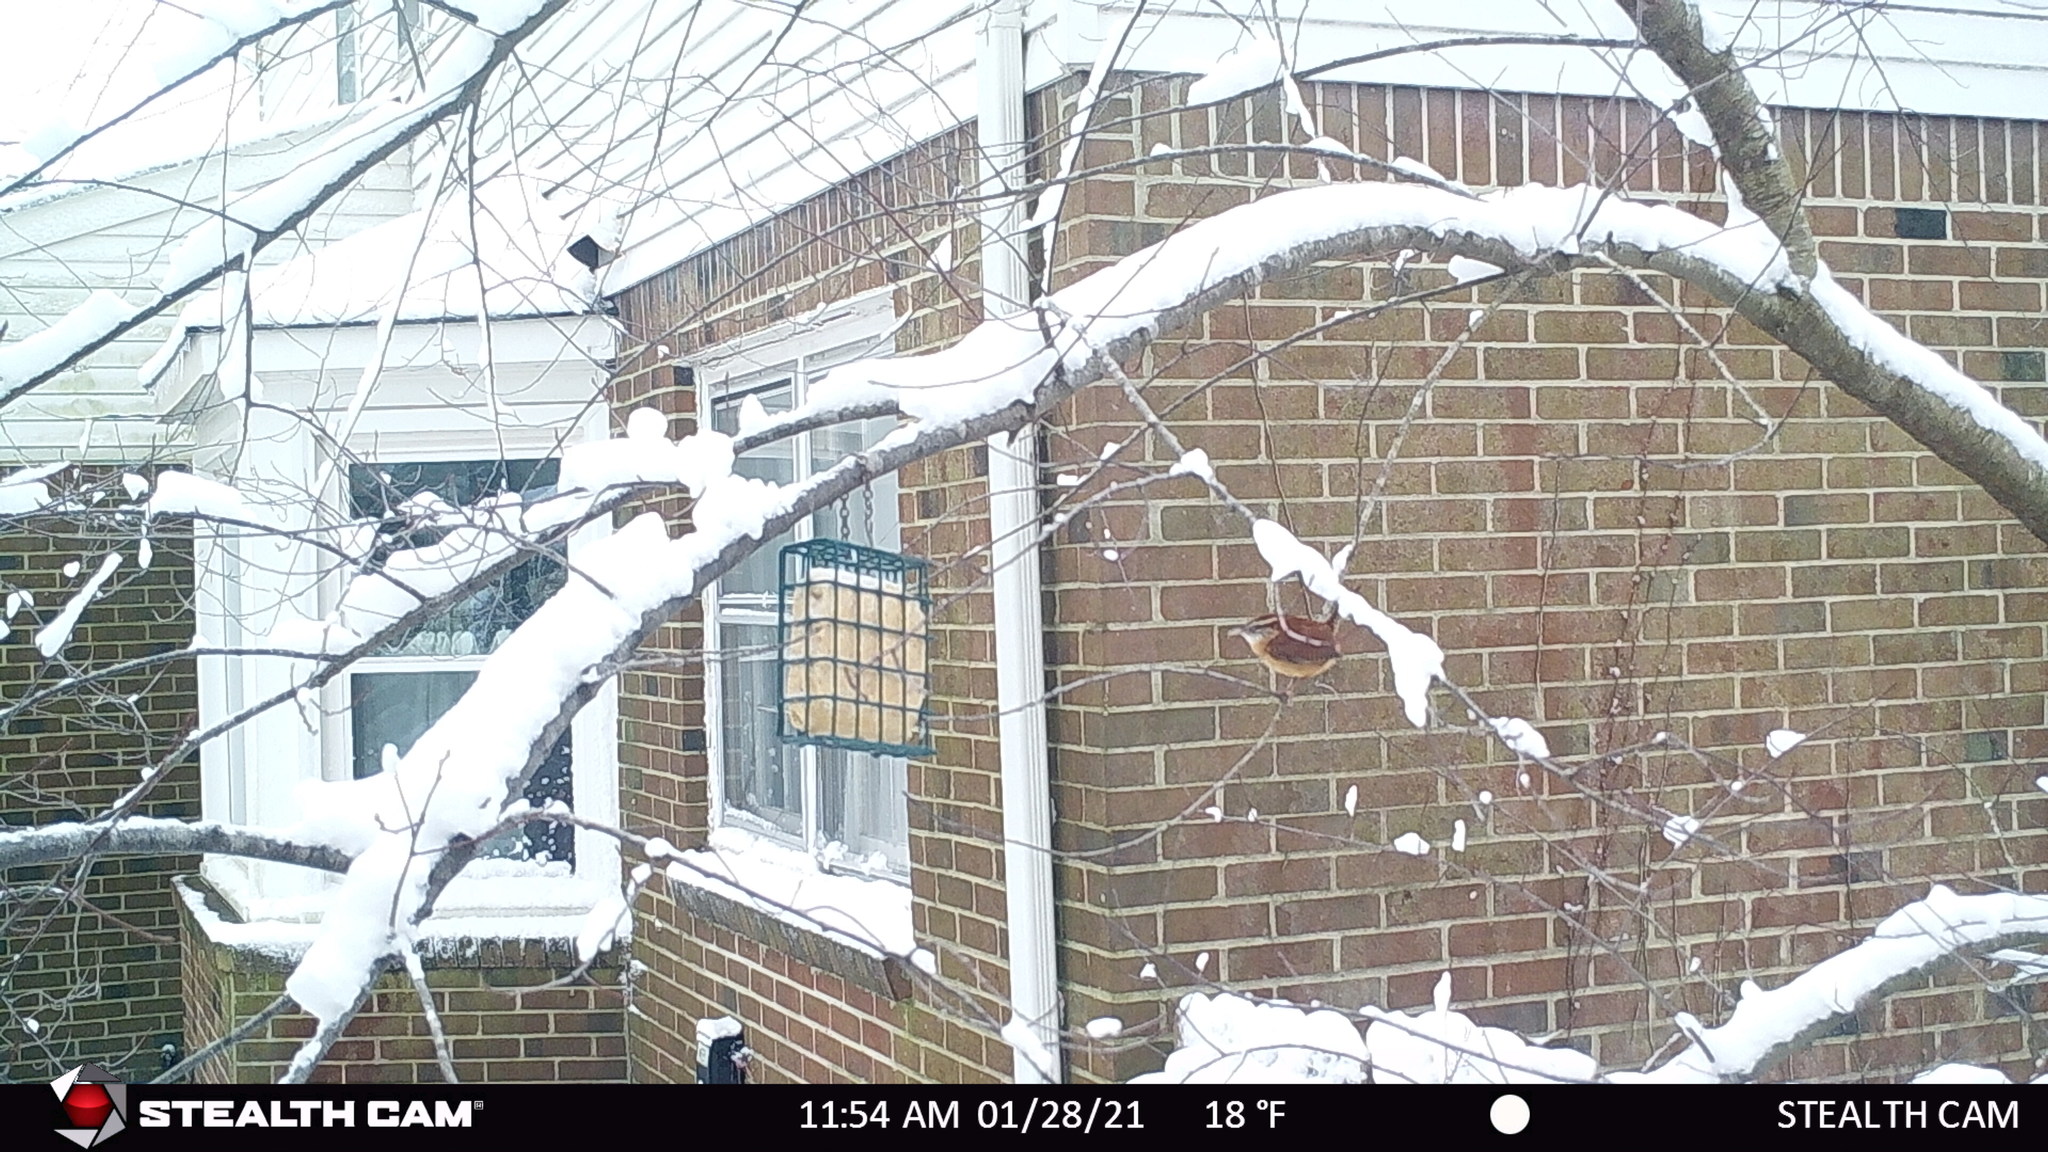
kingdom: Animalia
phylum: Chordata
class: Aves
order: Passeriformes
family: Troglodytidae
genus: Thryothorus
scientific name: Thryothorus ludovicianus
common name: Carolina wren
